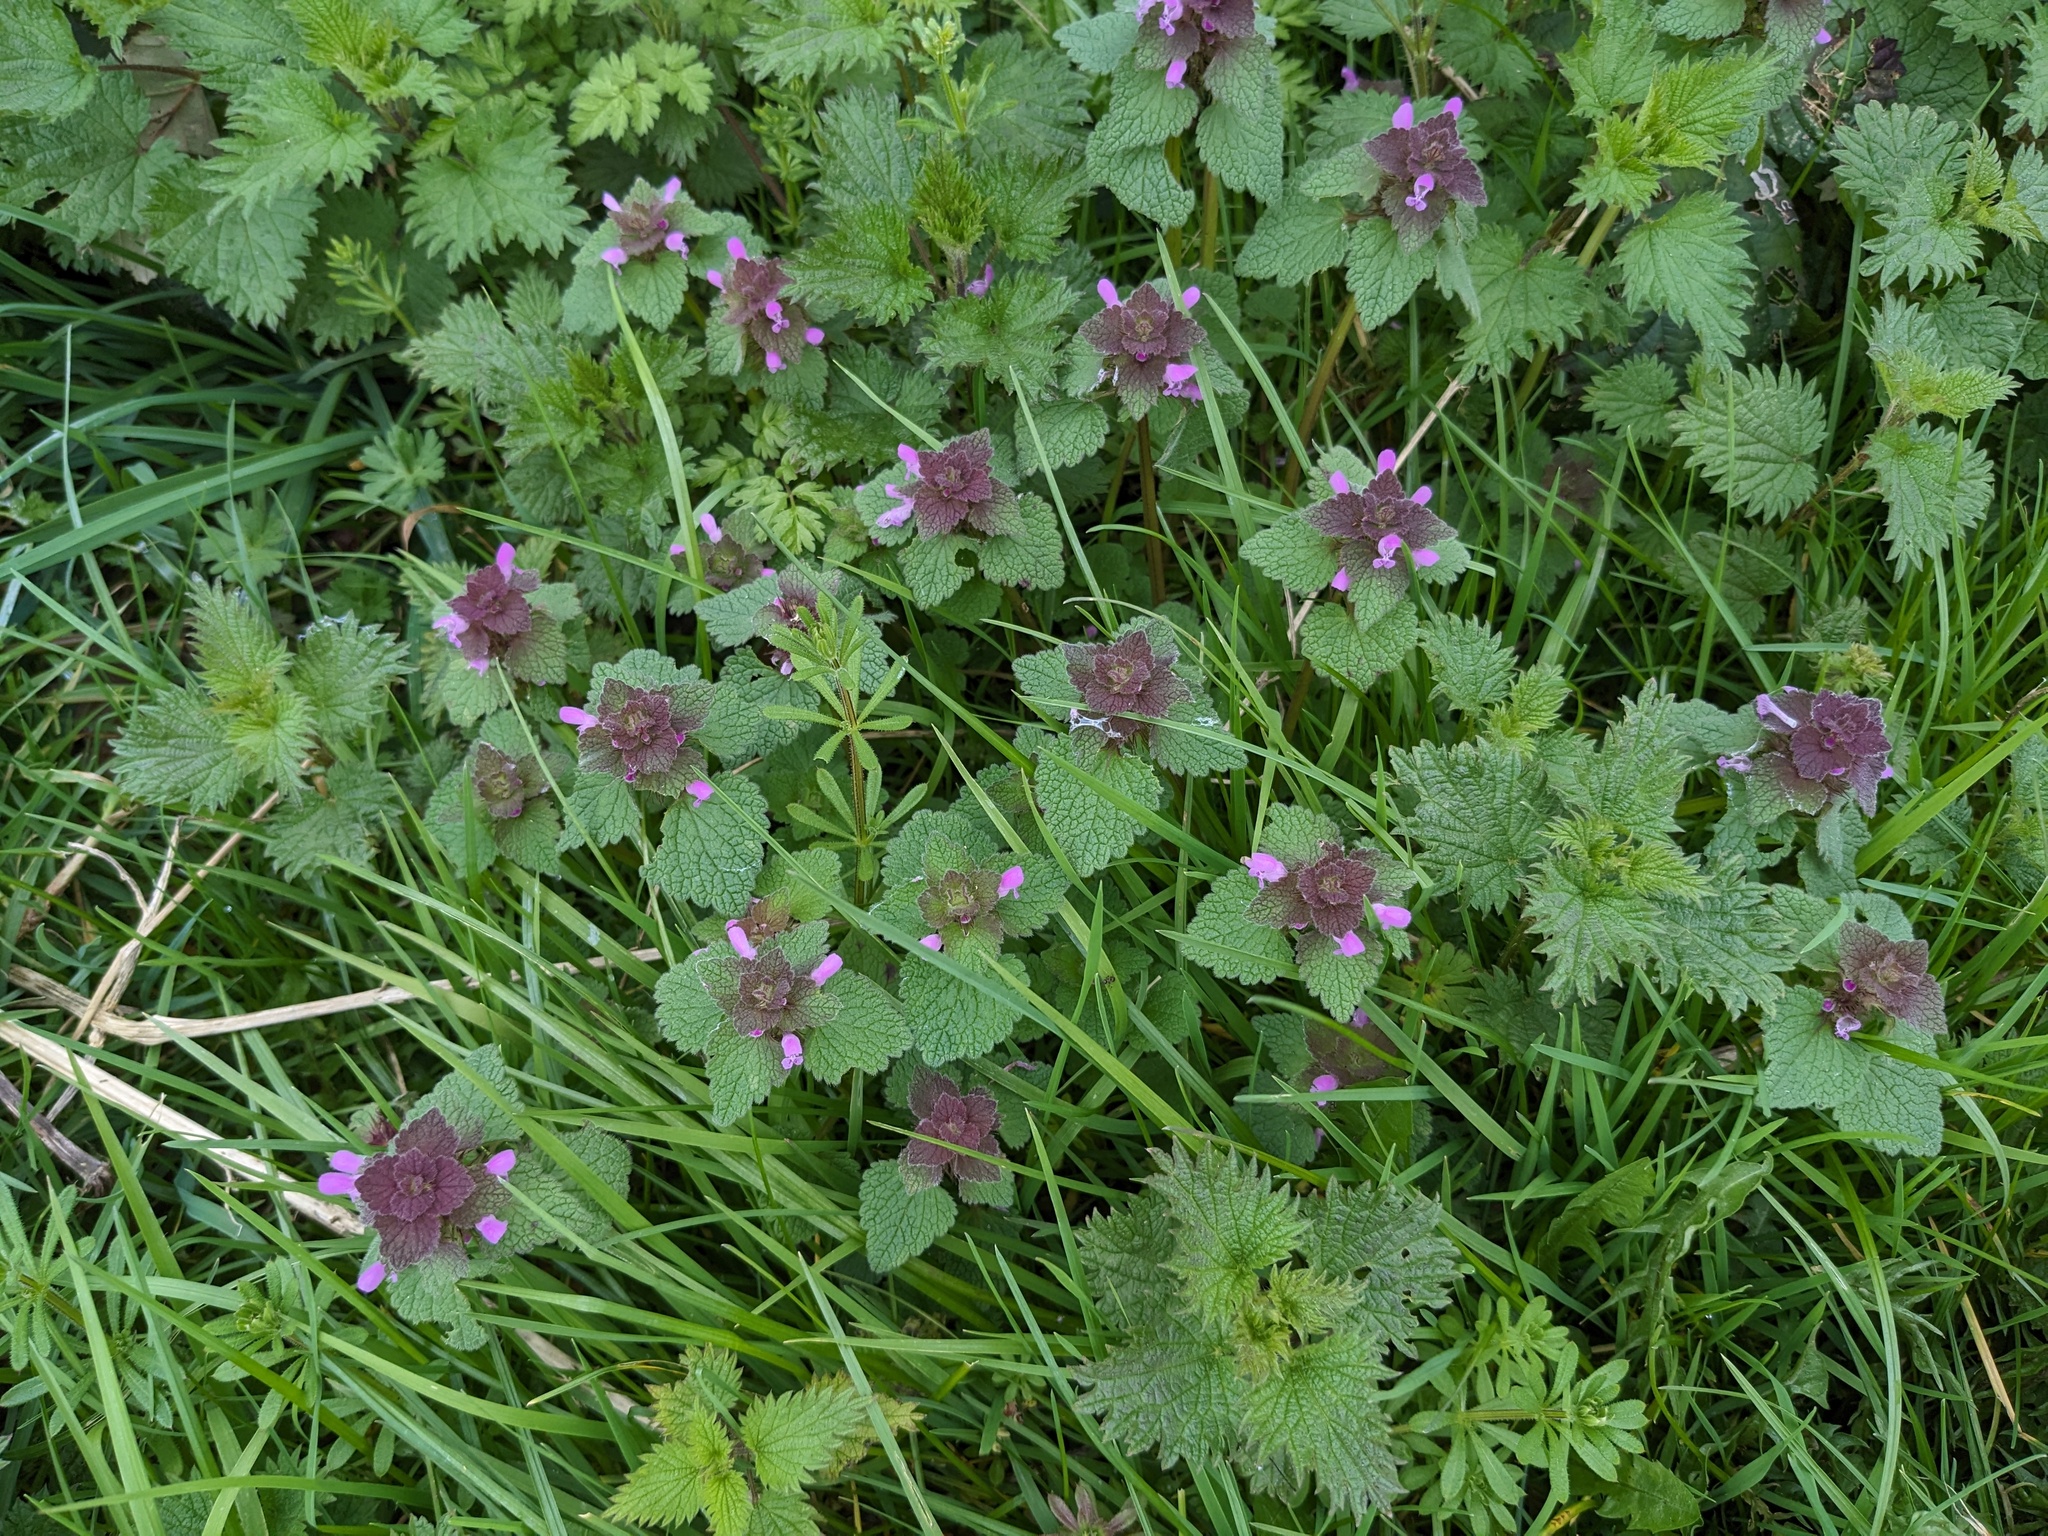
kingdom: Plantae
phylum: Tracheophyta
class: Magnoliopsida
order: Lamiales
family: Lamiaceae
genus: Lamium
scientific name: Lamium purpureum
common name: Red dead-nettle
